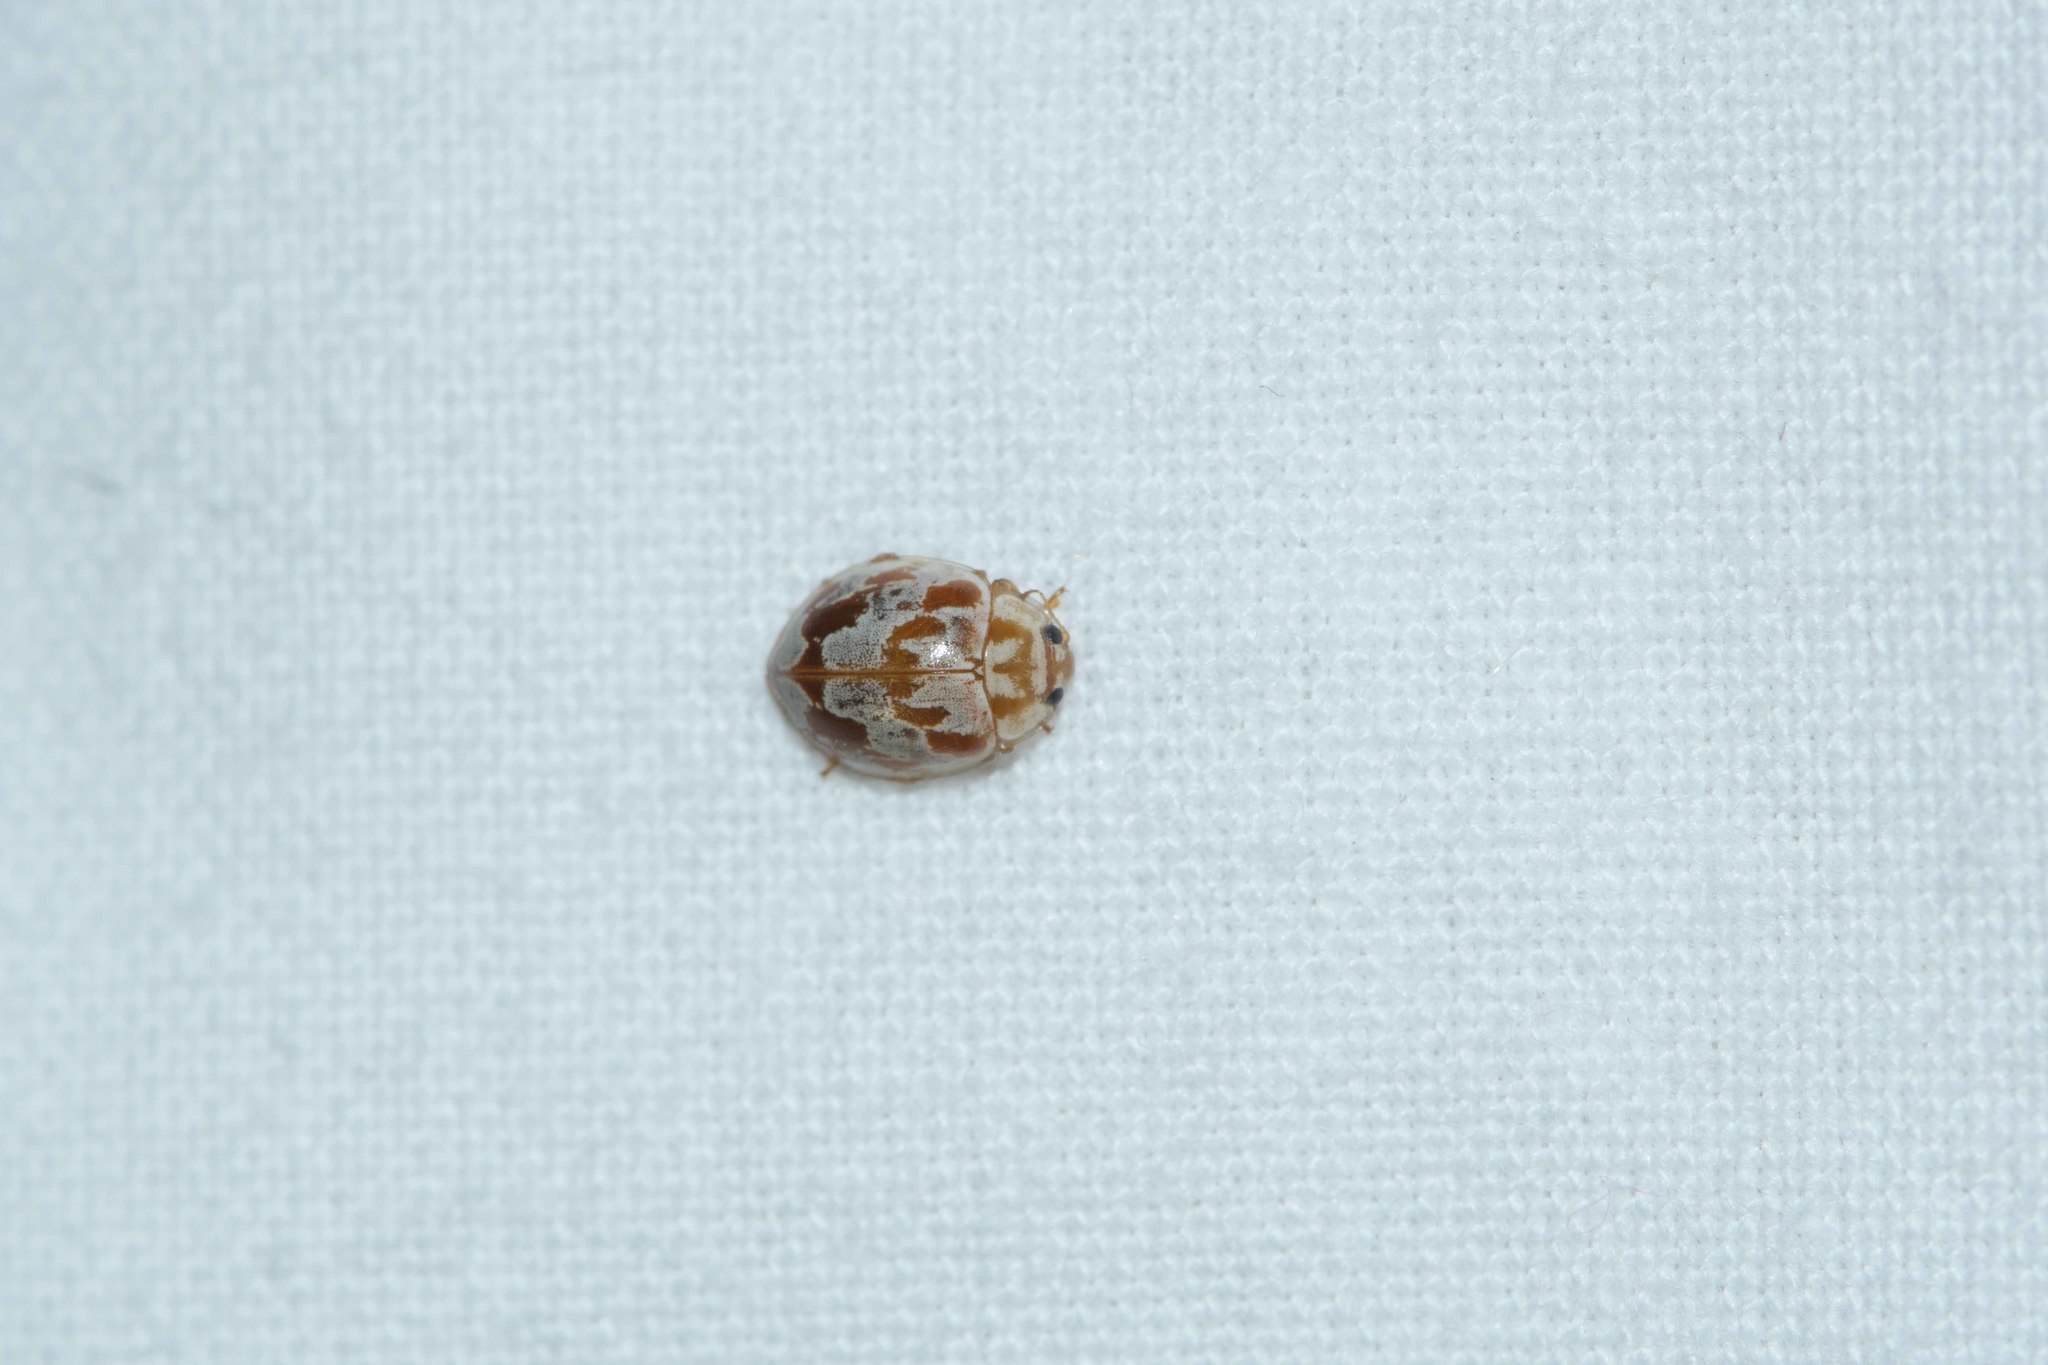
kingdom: Animalia
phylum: Arthropoda
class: Insecta
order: Coleoptera
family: Coccinellidae
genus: Myrrha
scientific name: Myrrha octodecimguttata
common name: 18-spot ladybird
